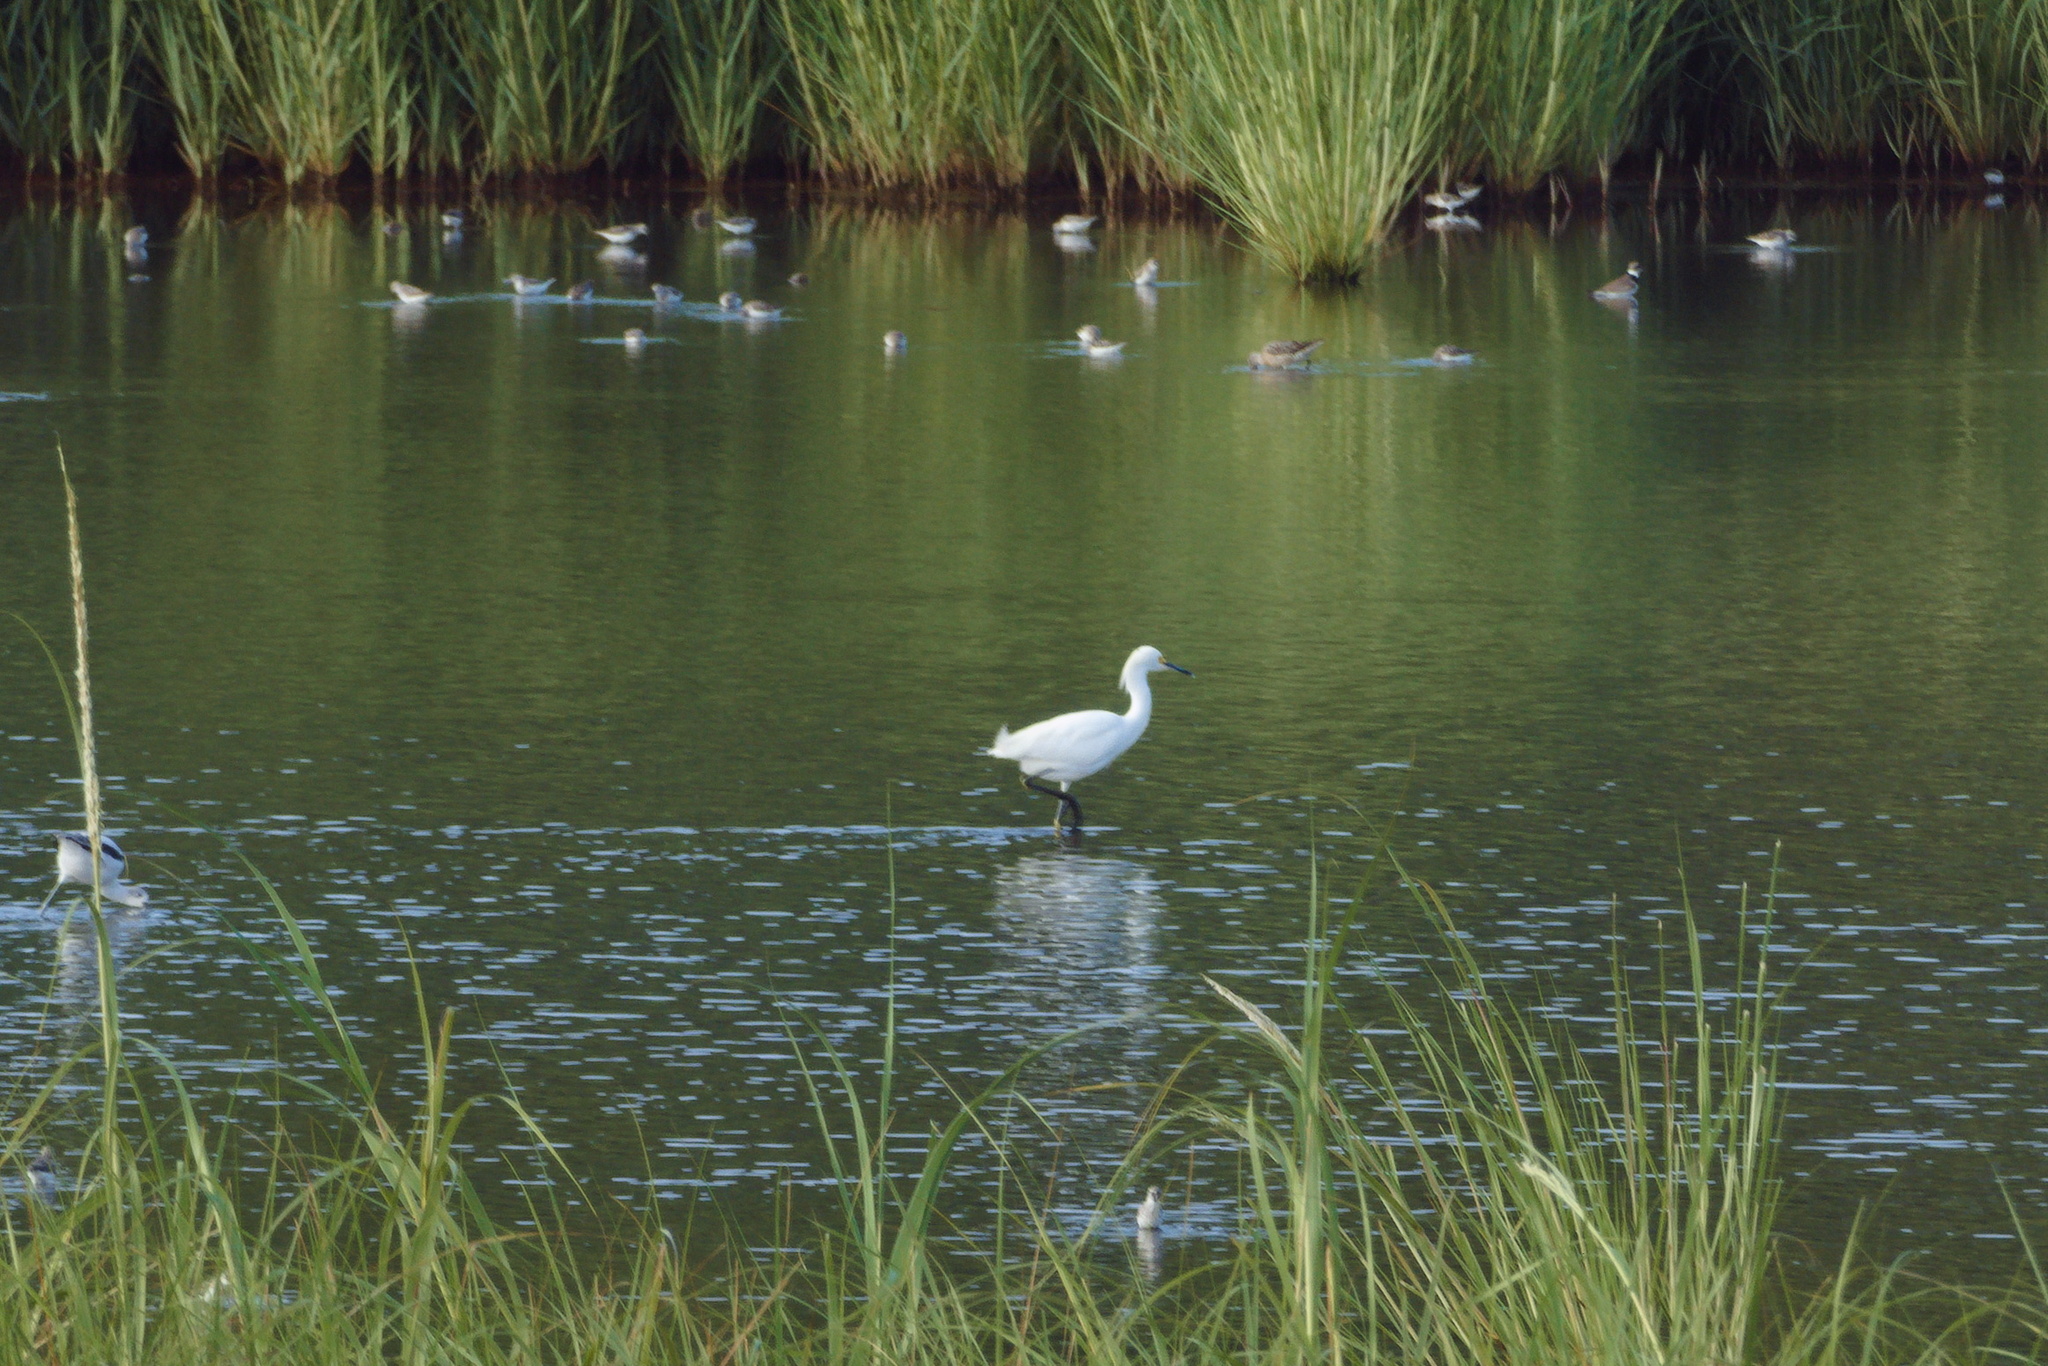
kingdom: Animalia
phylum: Chordata
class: Aves
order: Pelecaniformes
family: Ardeidae
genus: Egretta
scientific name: Egretta thula
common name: Snowy egret
